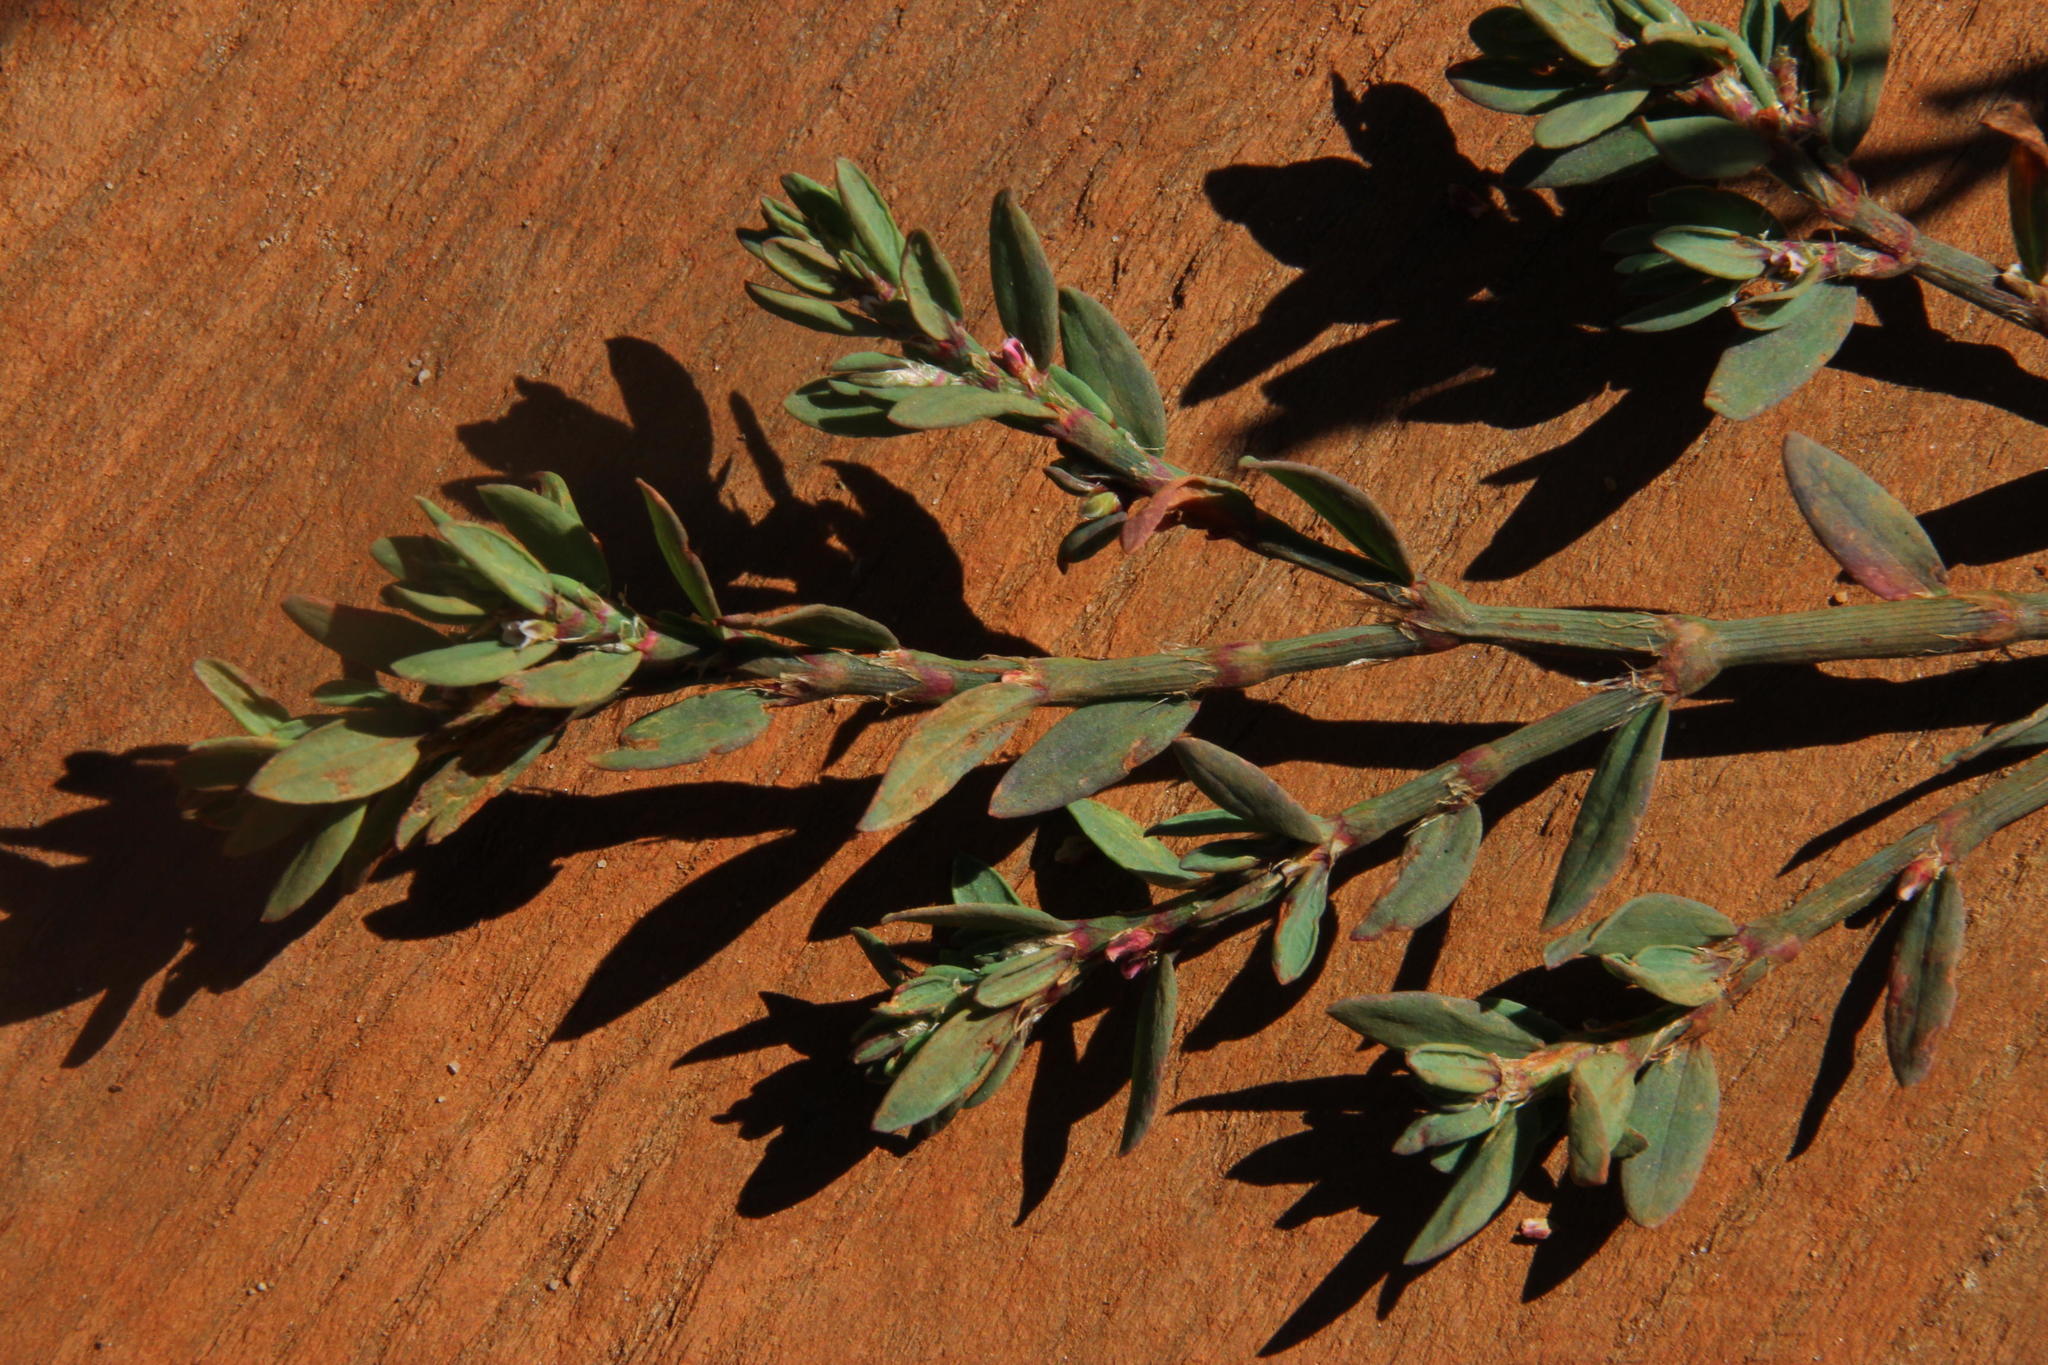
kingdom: Plantae
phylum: Tracheophyta
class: Magnoliopsida
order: Caryophyllales
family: Polygonaceae
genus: Polygonum
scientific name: Polygonum aviculare
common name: Prostrate knotweed
